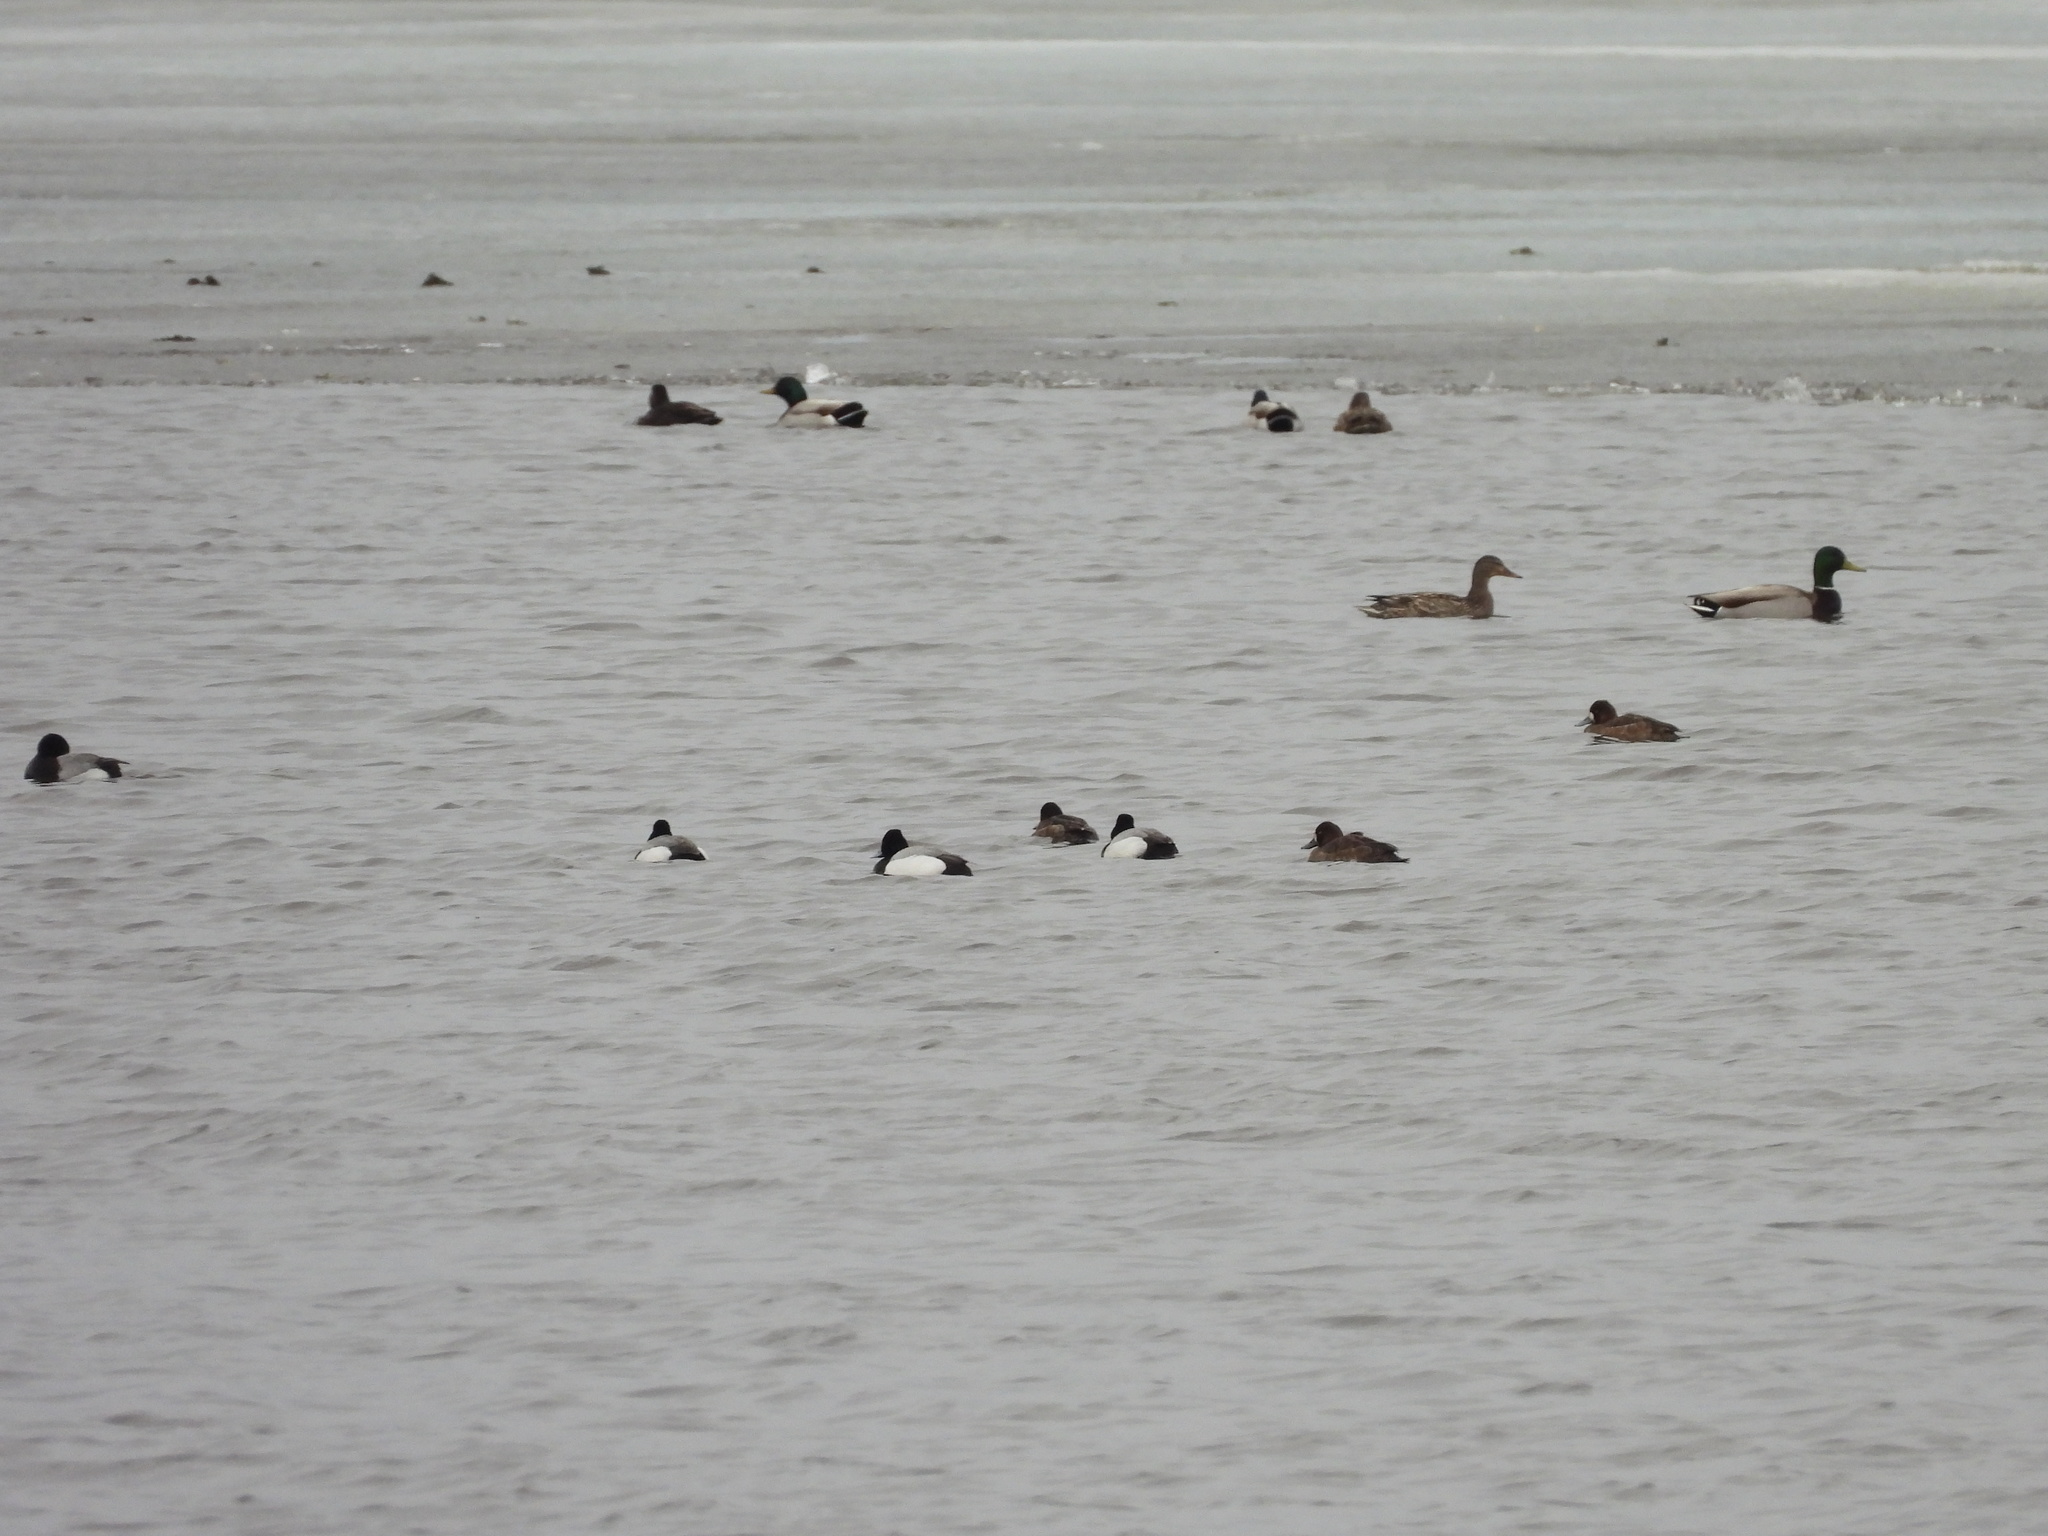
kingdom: Animalia
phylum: Chordata
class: Aves
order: Anseriformes
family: Anatidae
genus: Aythya
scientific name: Aythya affinis
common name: Lesser scaup
